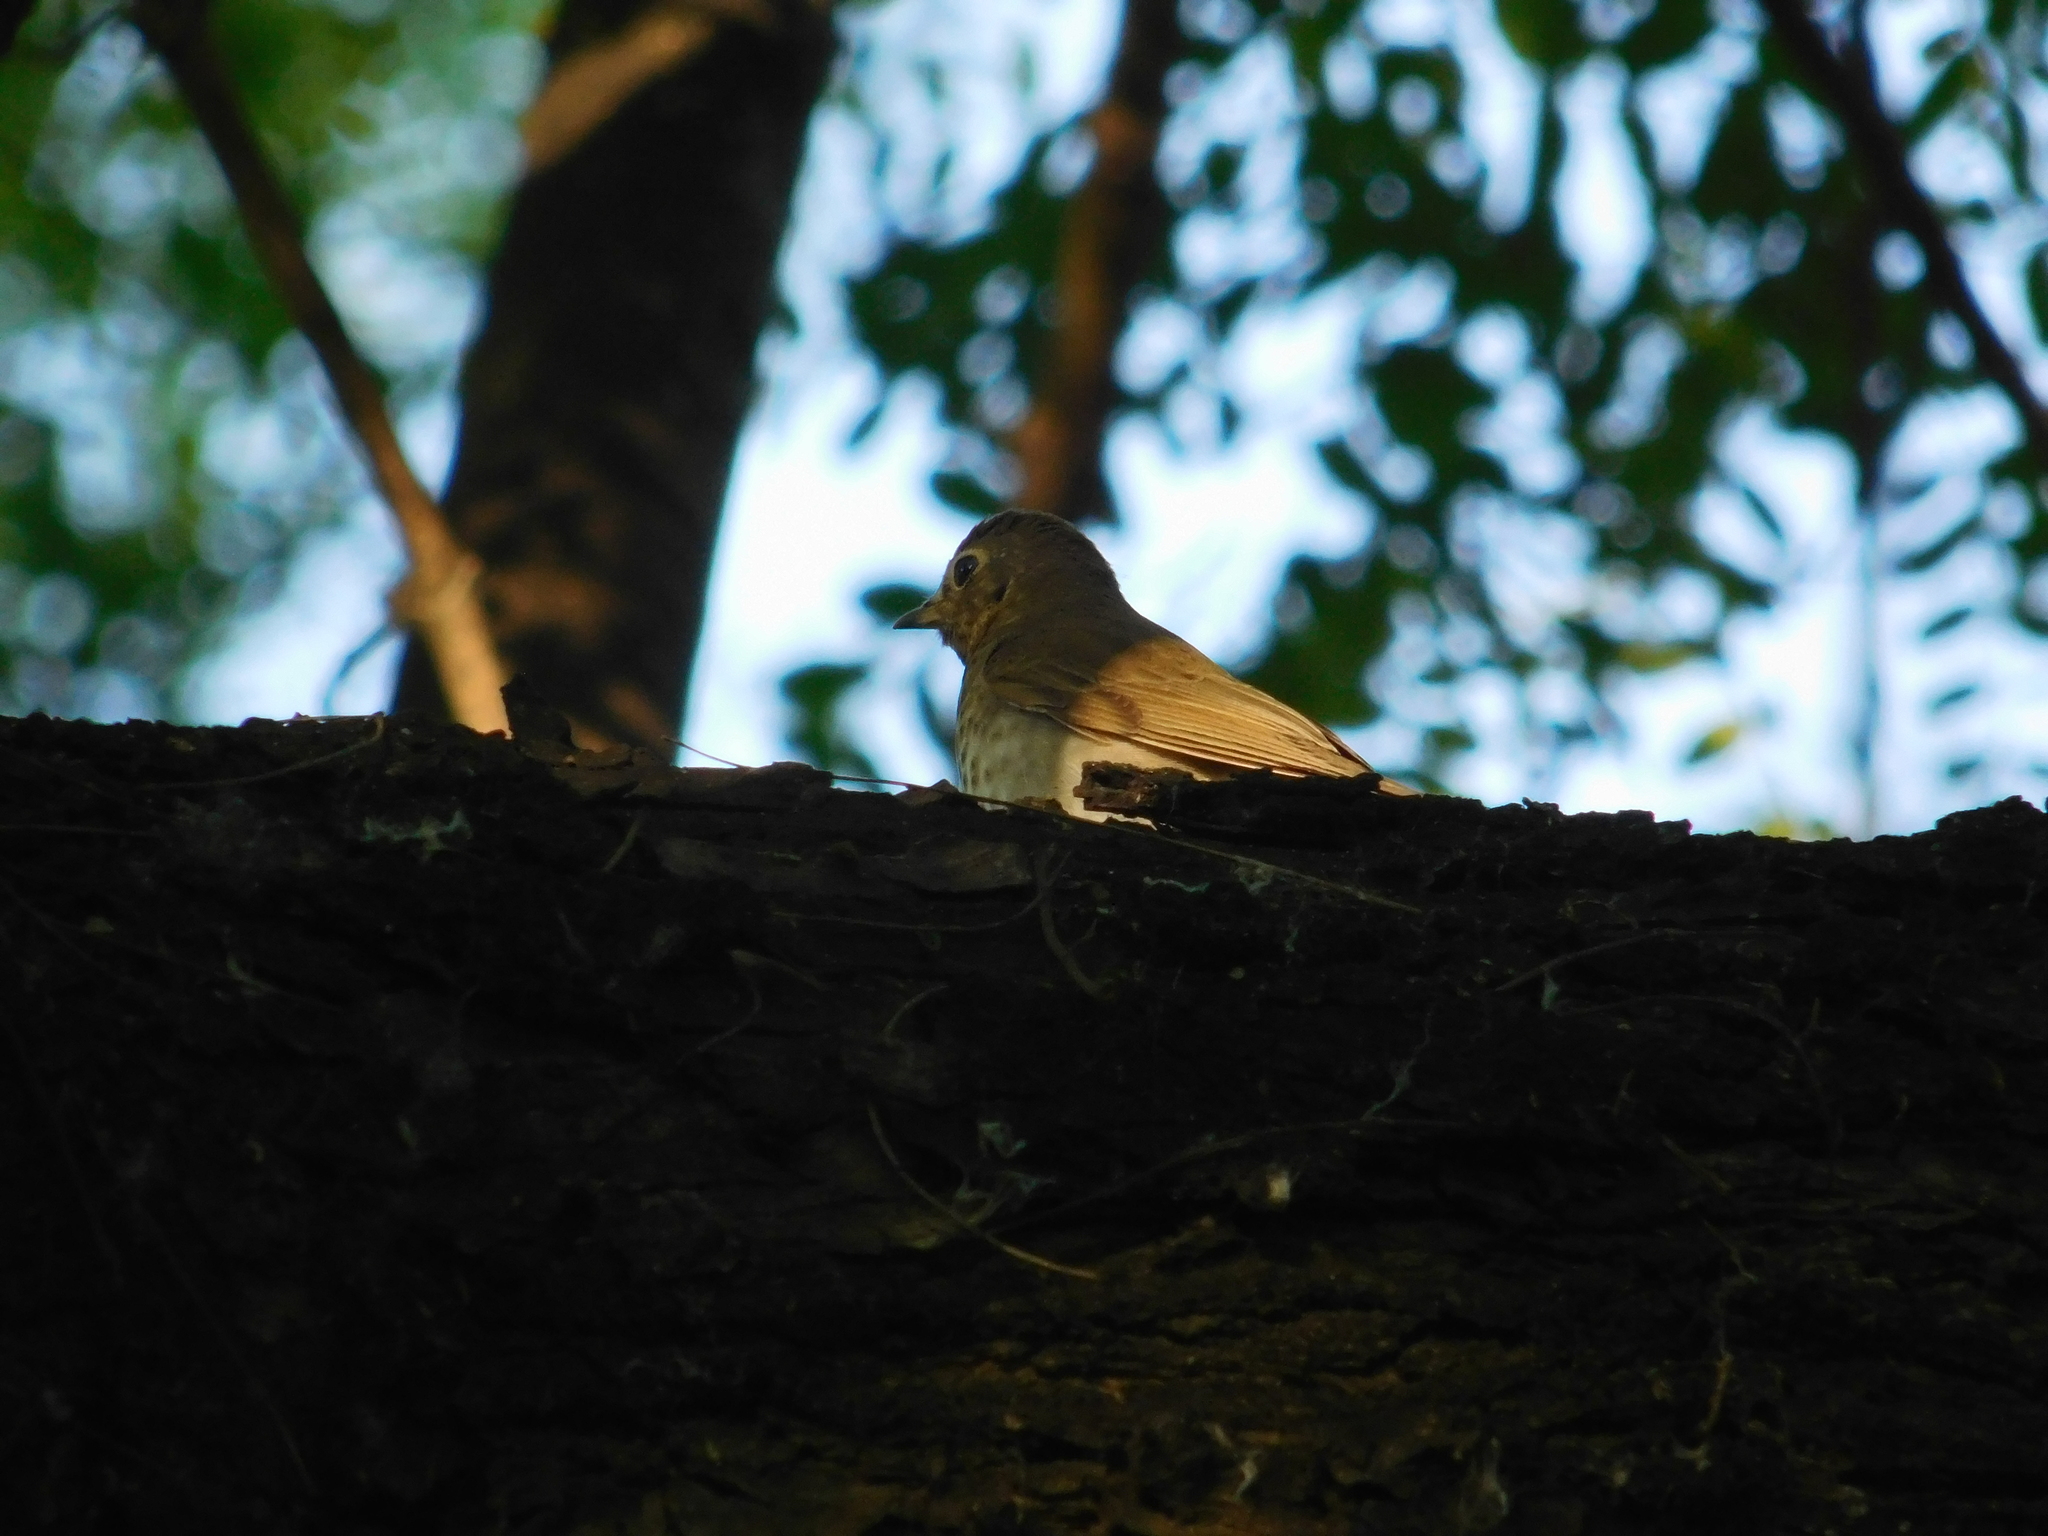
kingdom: Animalia
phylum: Chordata
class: Aves
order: Passeriformes
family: Turdidae
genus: Catharus
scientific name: Catharus ustulatus
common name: Swainson's thrush
